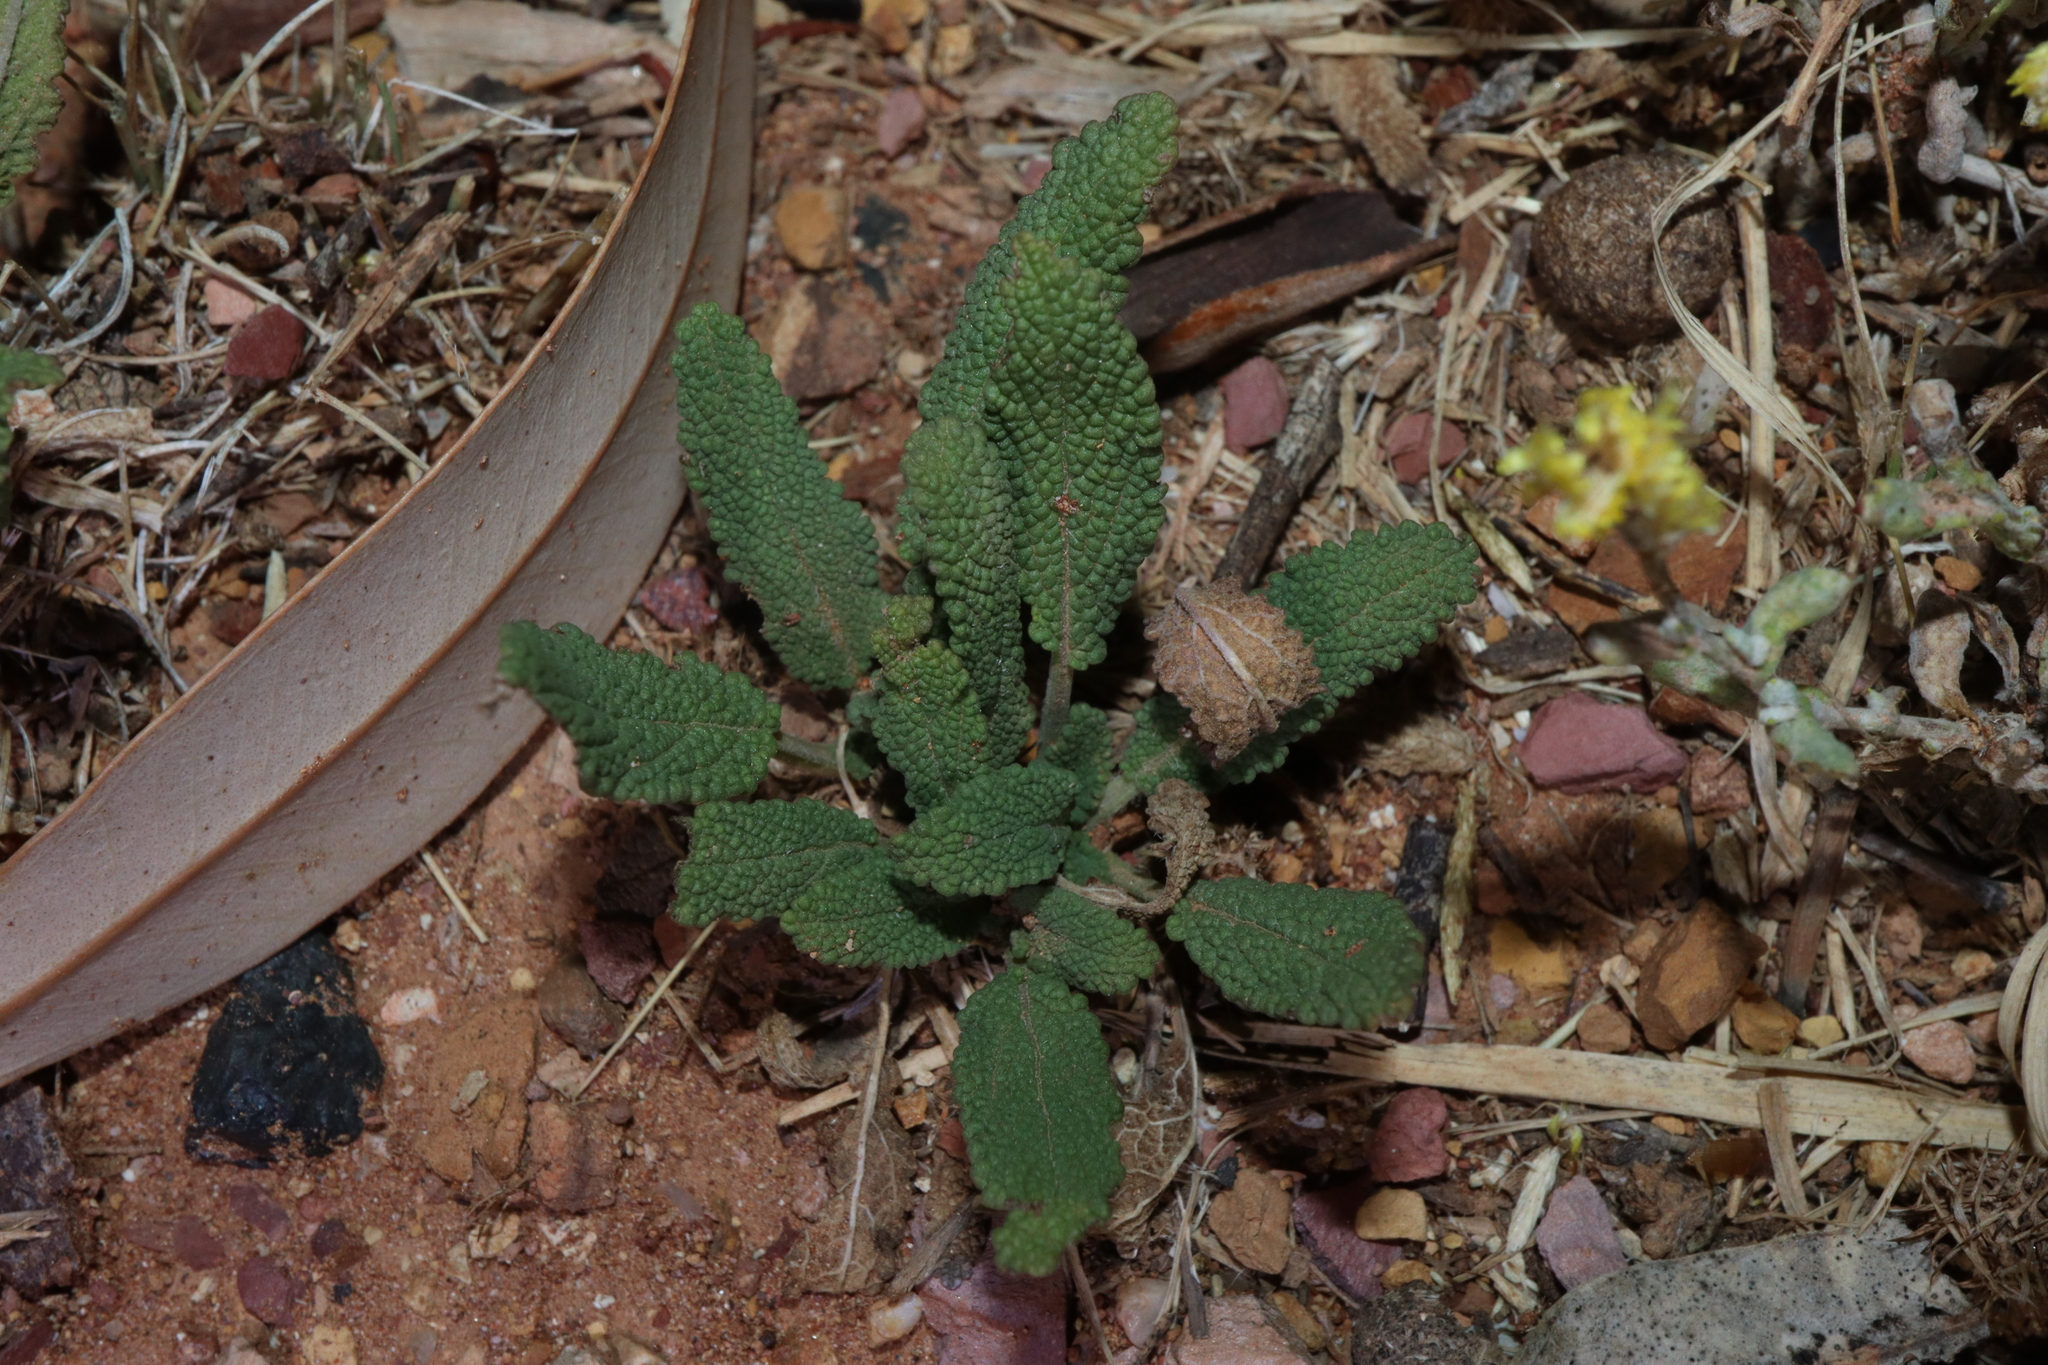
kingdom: Plantae
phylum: Tracheophyta
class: Magnoliopsida
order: Lamiales
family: Lamiaceae
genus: Salvia
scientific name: Salvia verbenaca
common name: Wild clary
